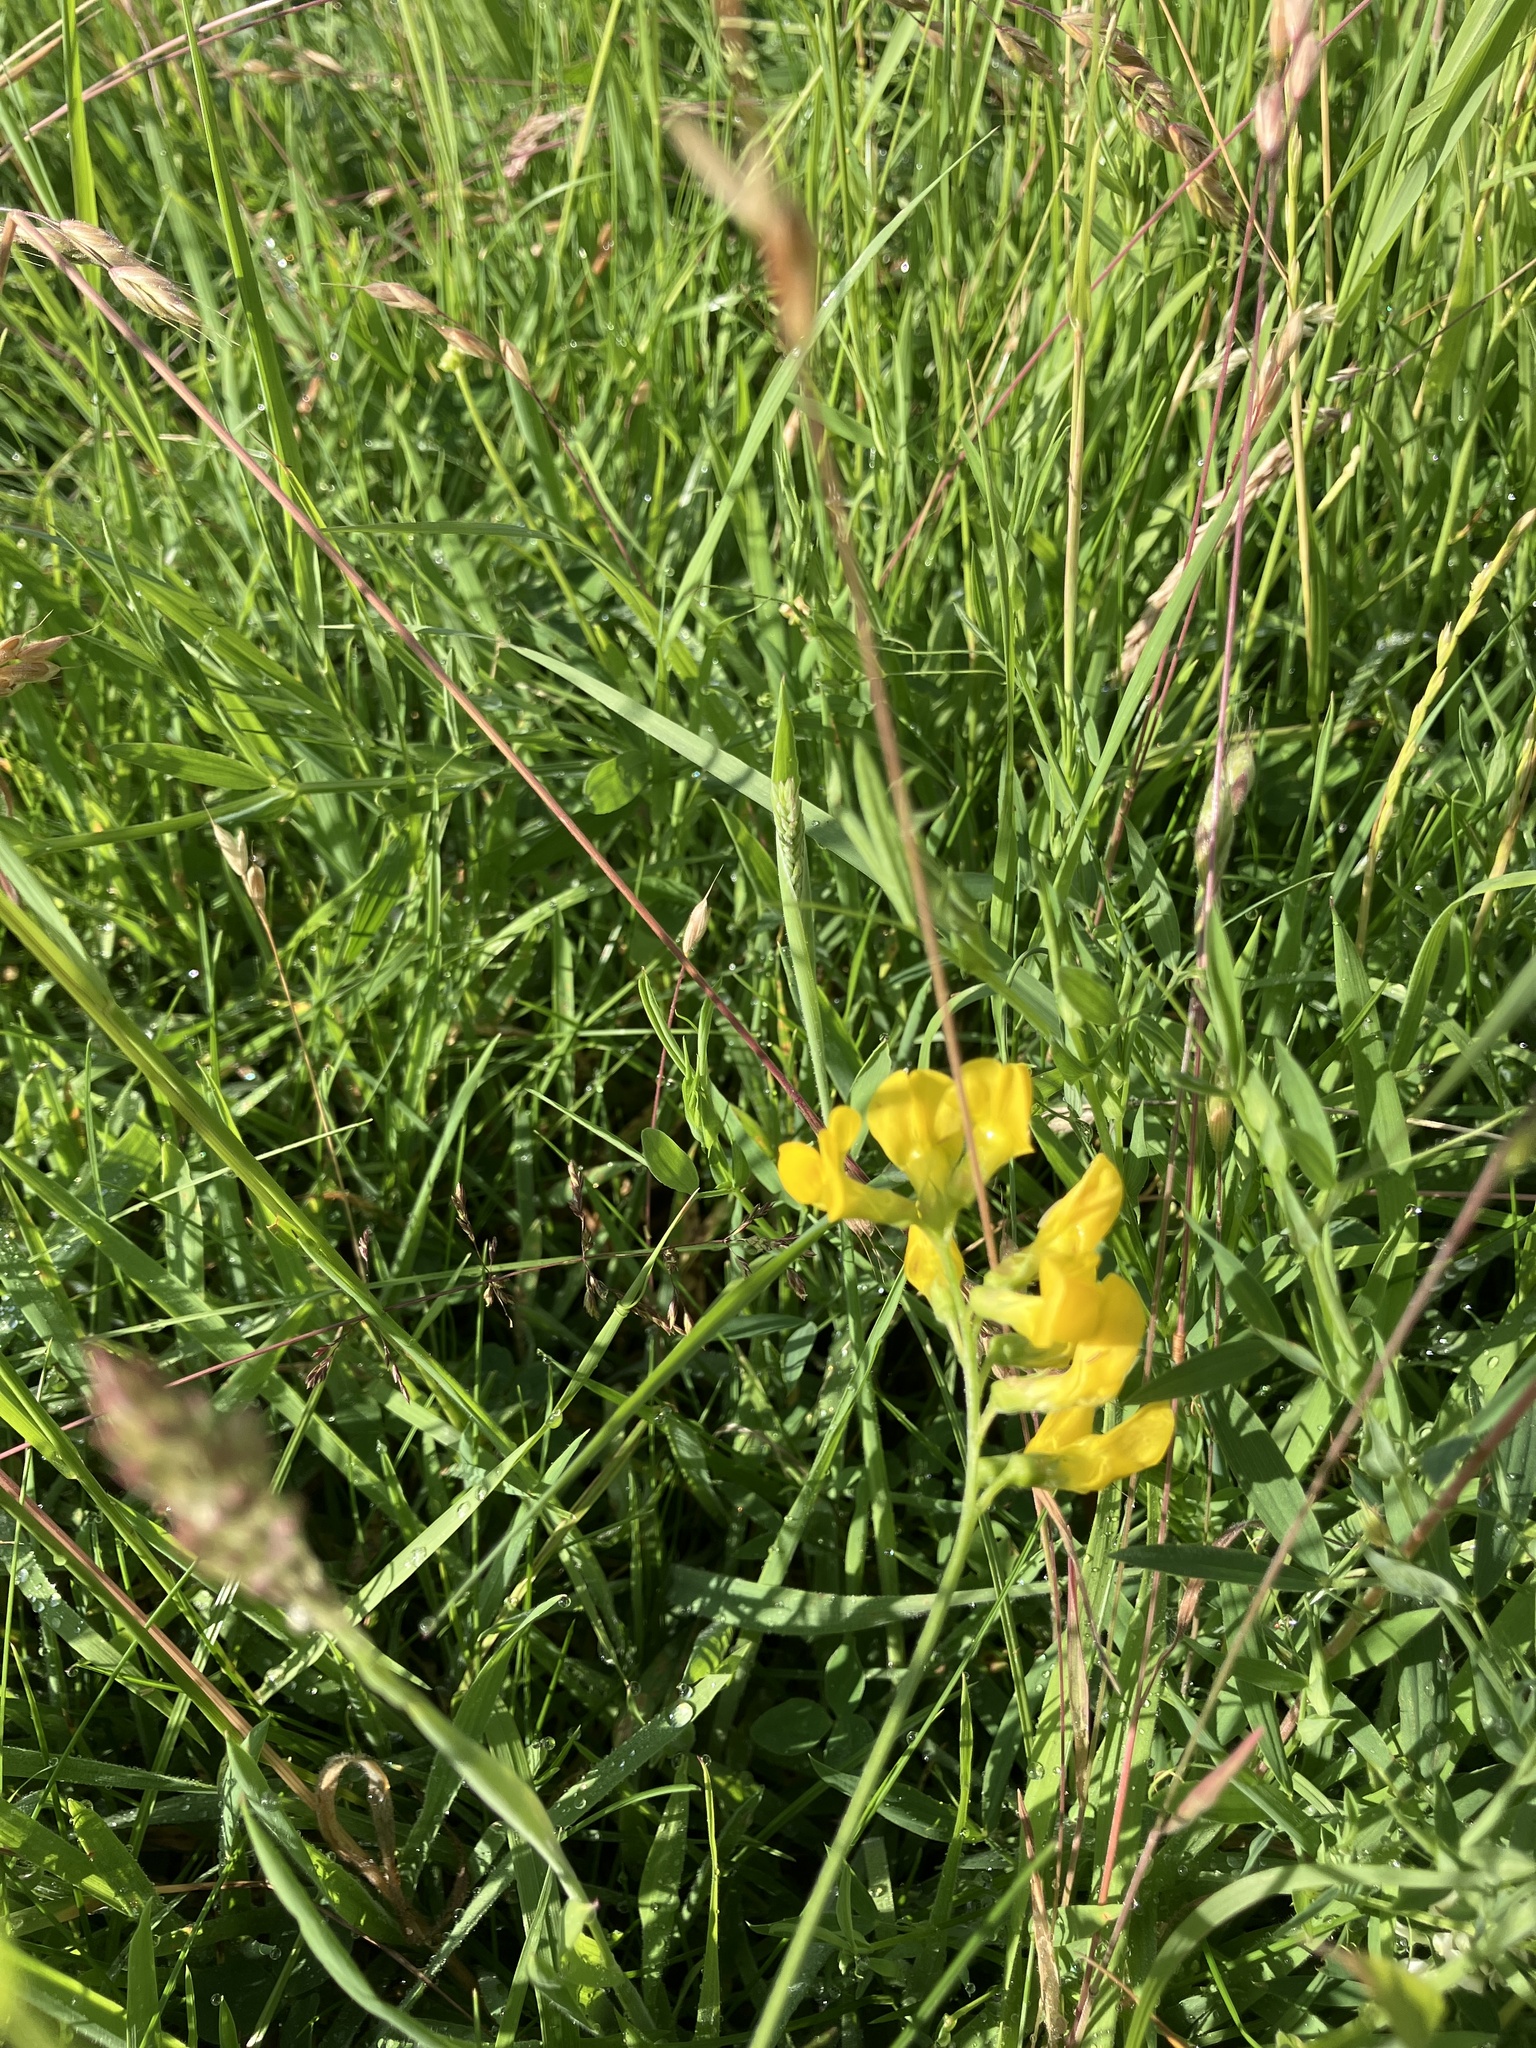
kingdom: Plantae
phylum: Tracheophyta
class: Magnoliopsida
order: Fabales
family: Fabaceae
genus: Lathyrus
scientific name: Lathyrus pratensis
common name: Meadow vetchling
